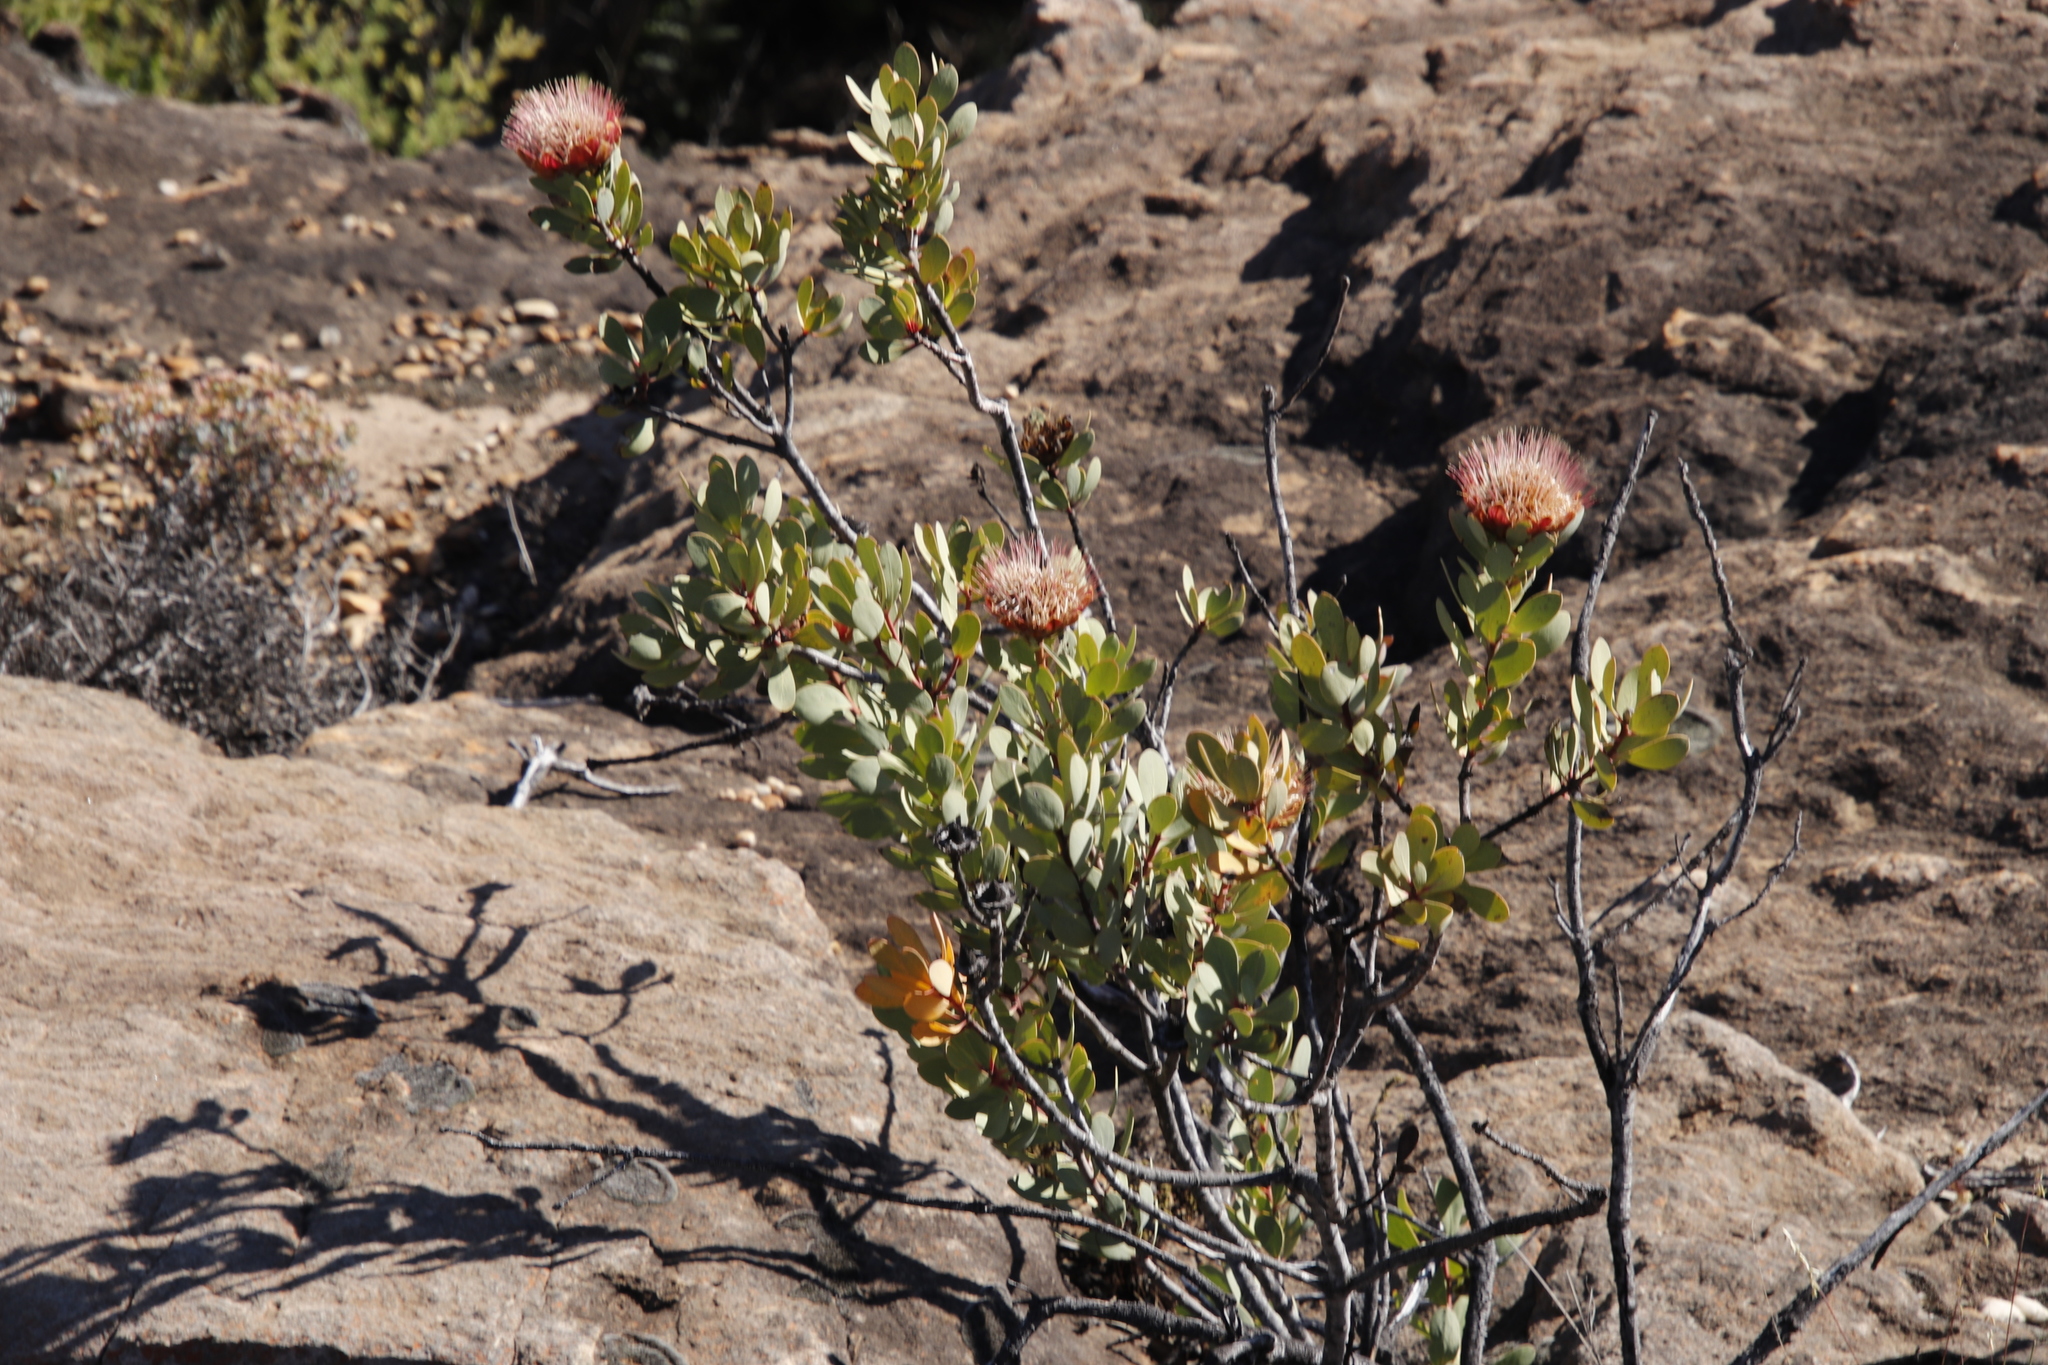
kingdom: Plantae
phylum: Tracheophyta
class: Magnoliopsida
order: Proteales
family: Proteaceae
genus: Protea
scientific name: Protea glabra
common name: Chestnut sugarbush
